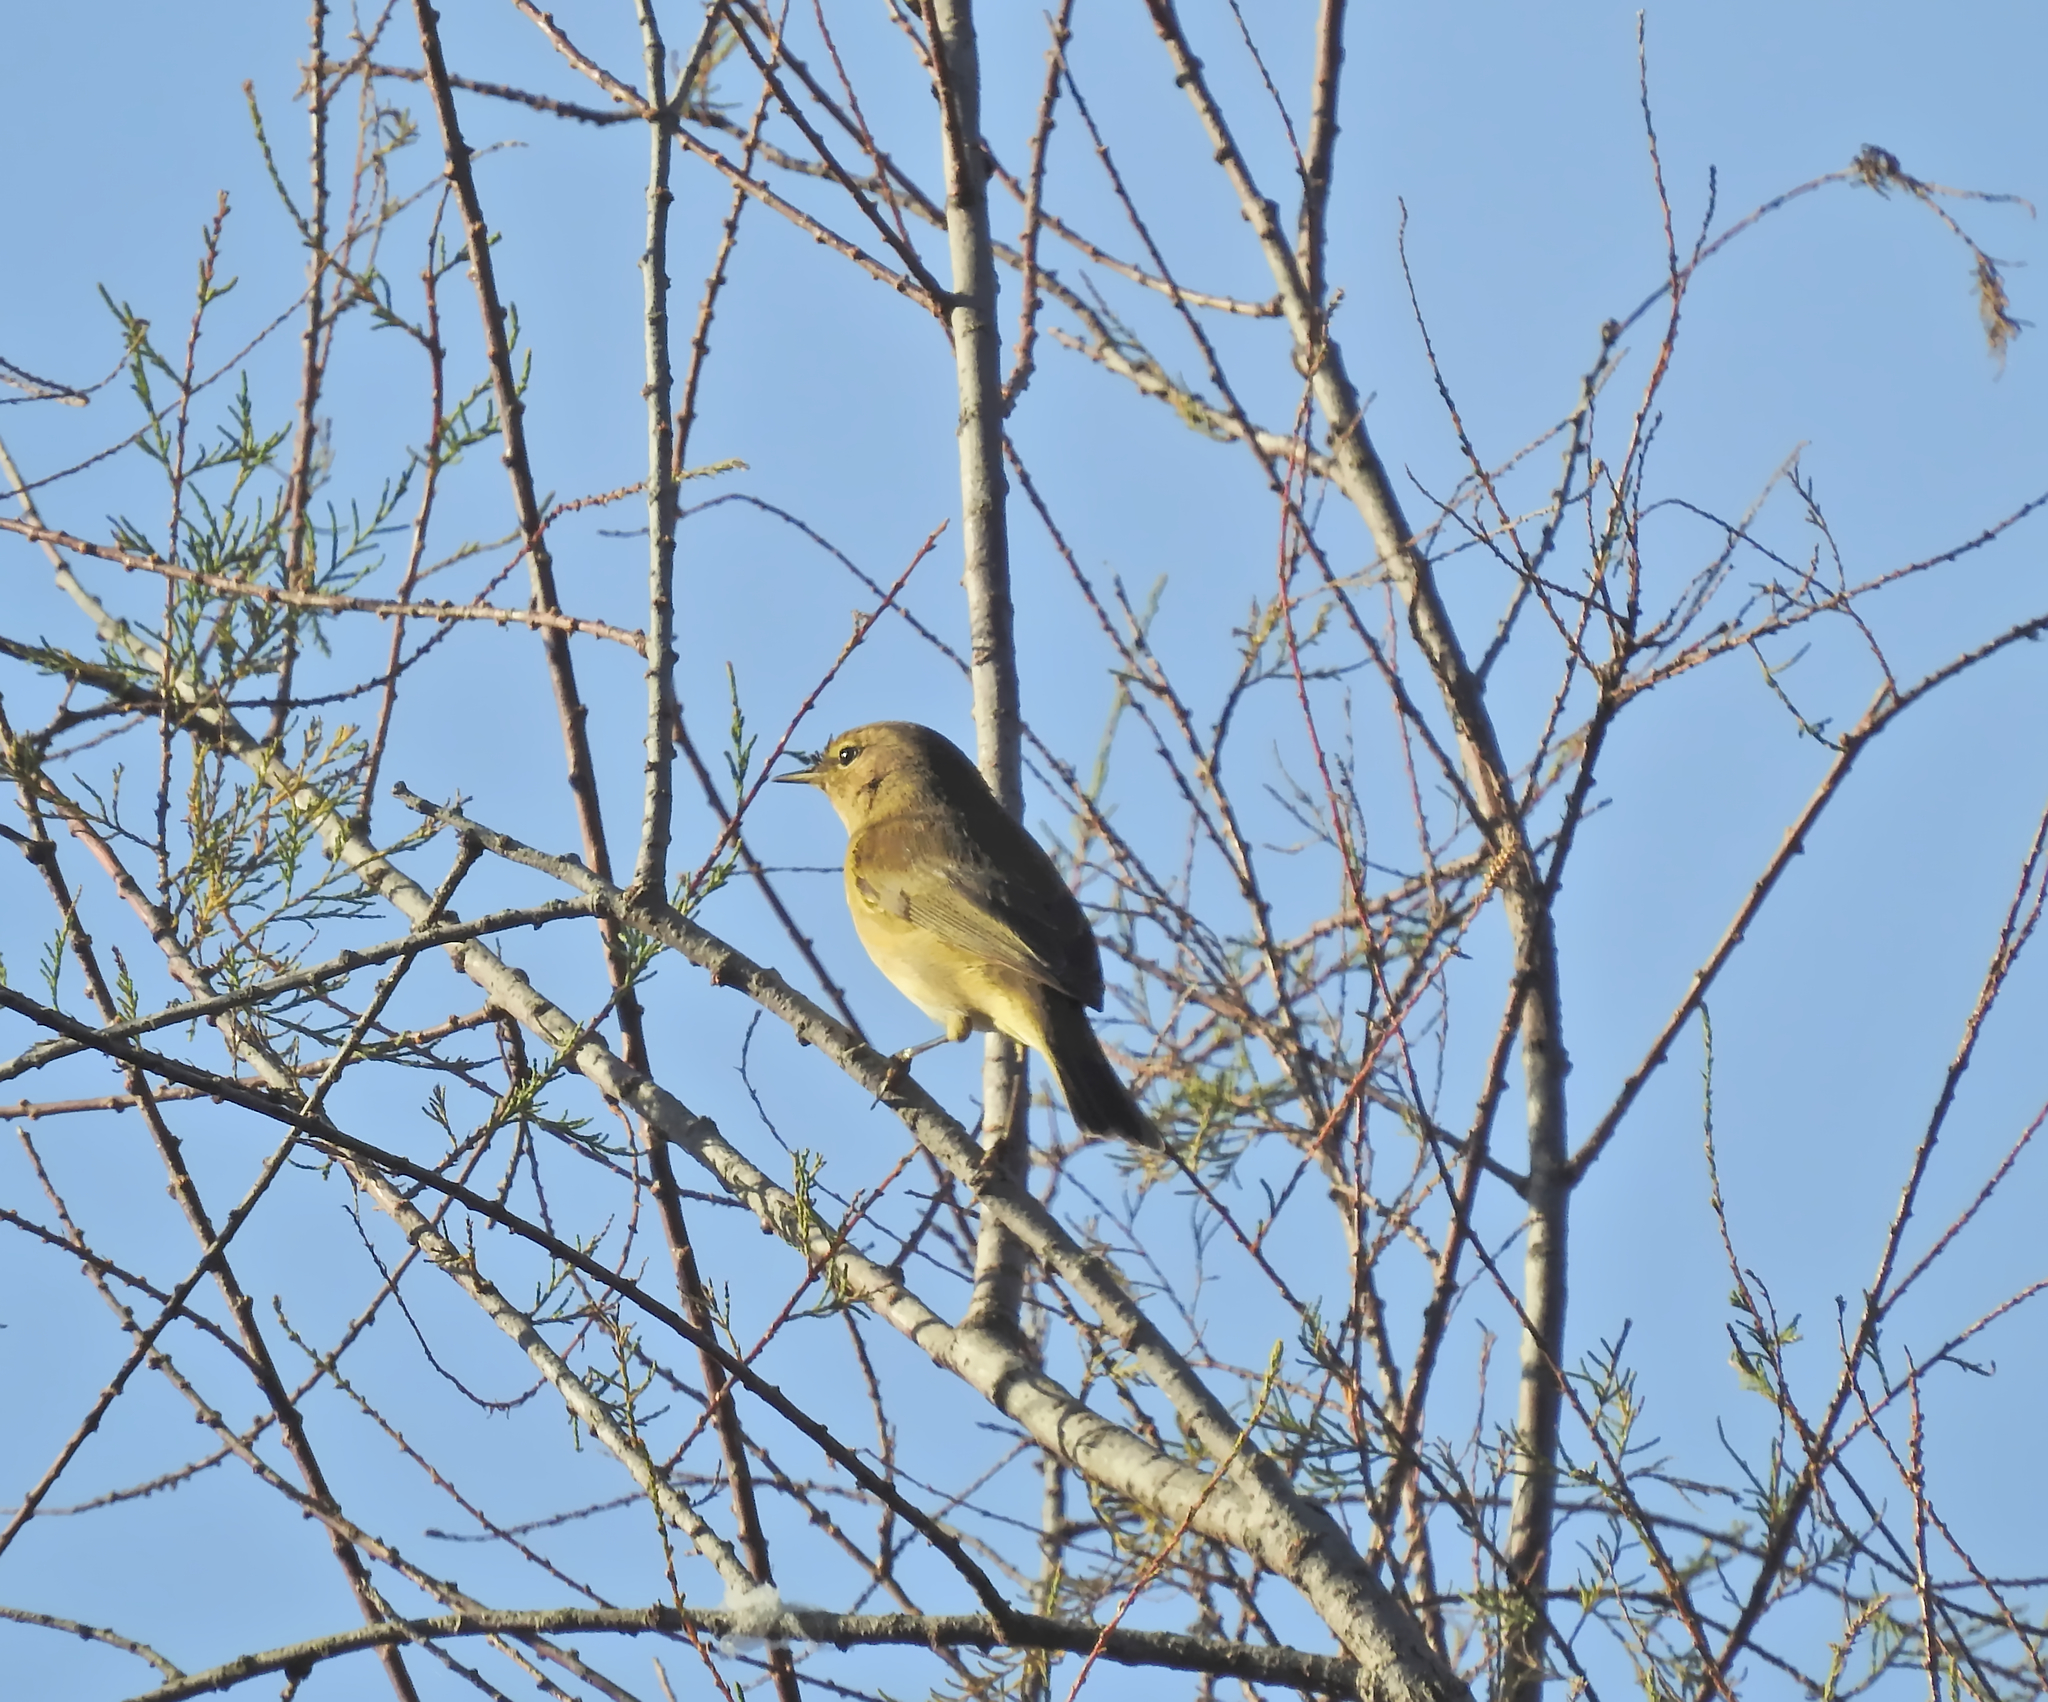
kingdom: Animalia
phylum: Chordata
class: Aves
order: Passeriformes
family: Phylloscopidae
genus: Phylloscopus
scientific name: Phylloscopus collybita
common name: Common chiffchaff
